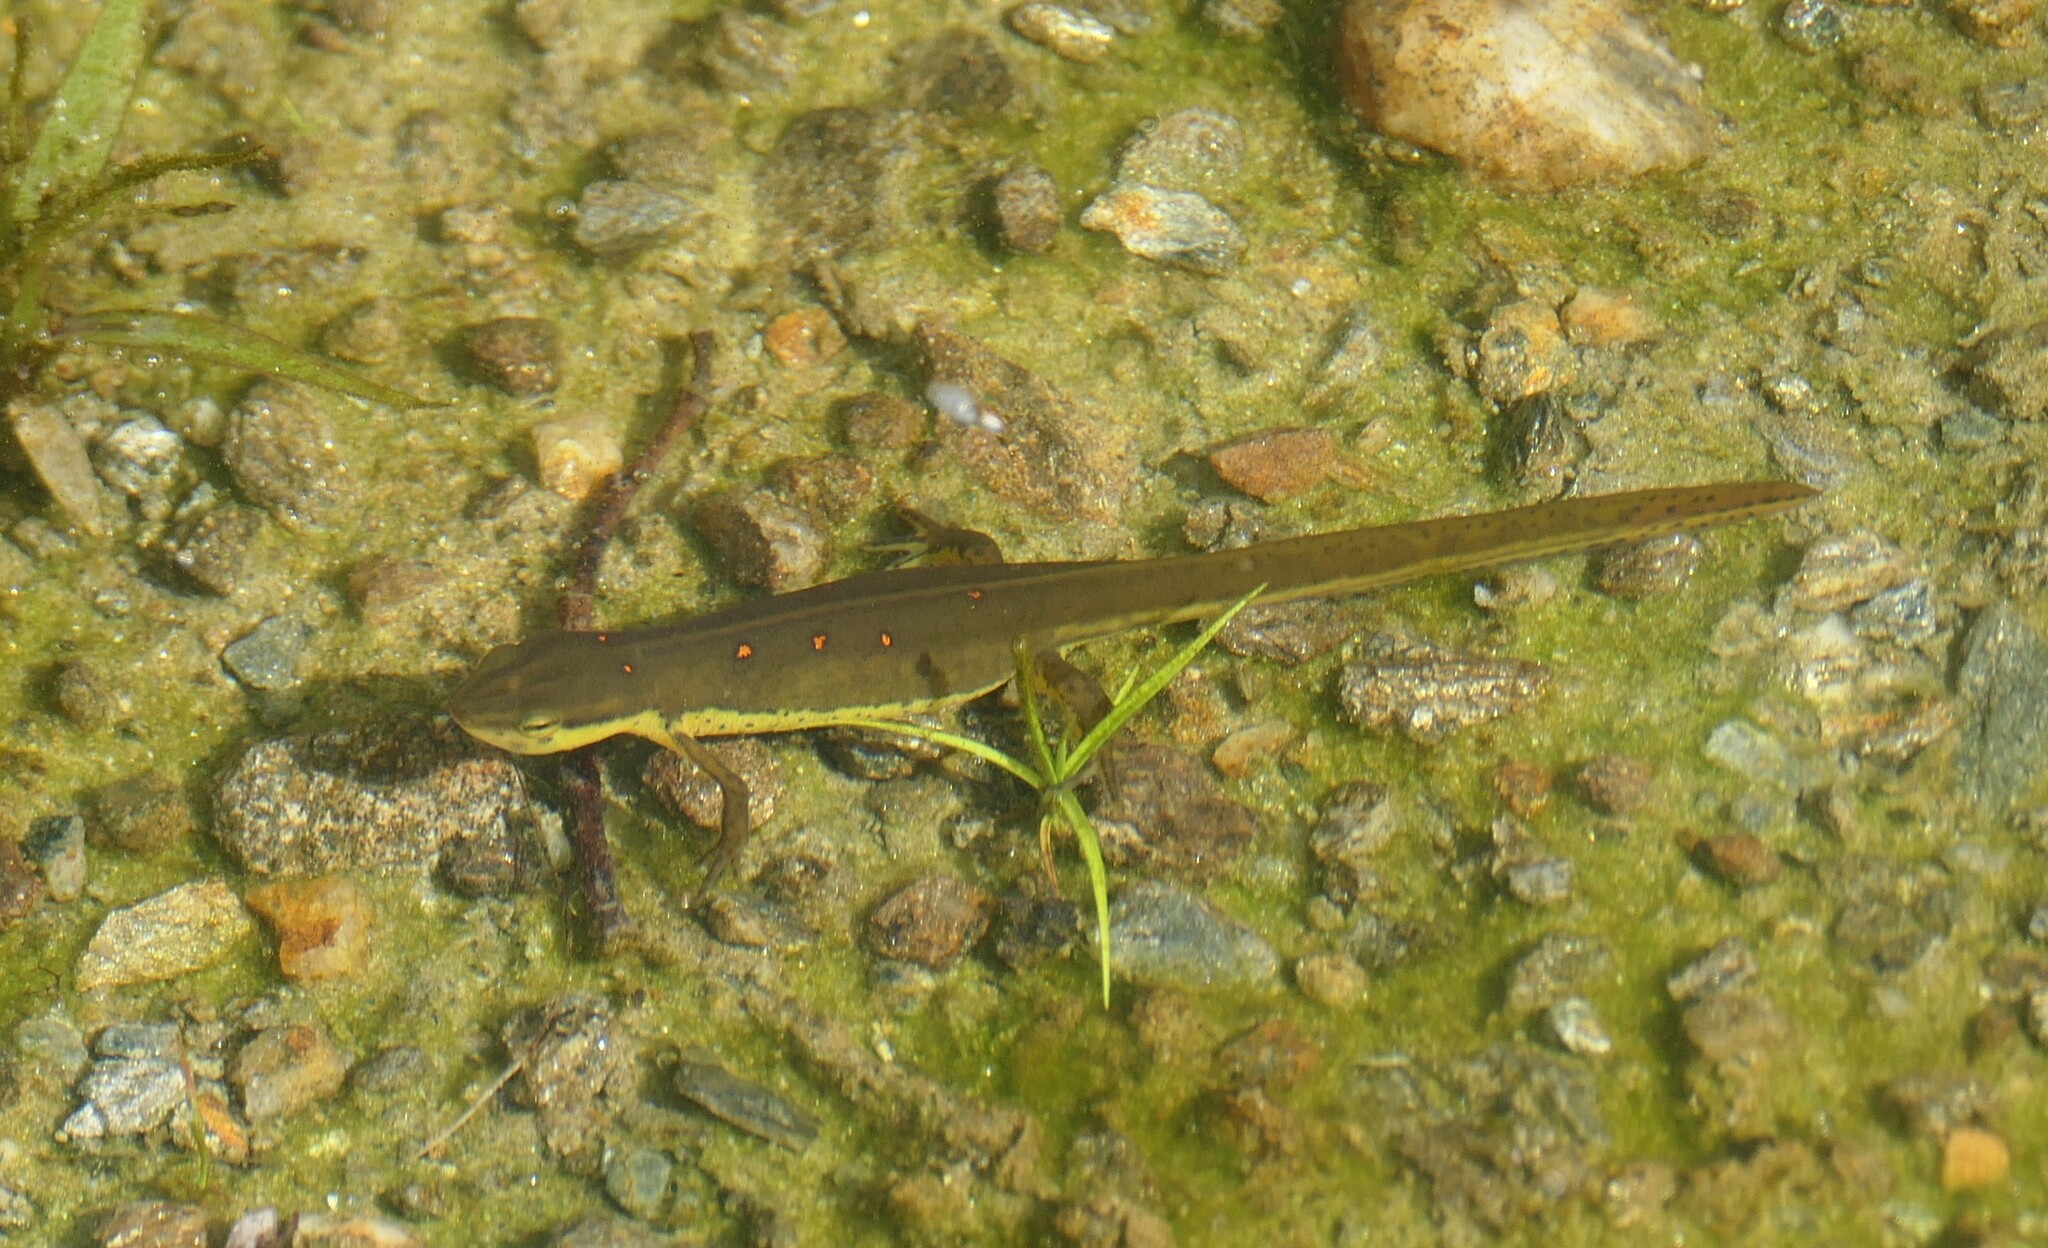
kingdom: Animalia
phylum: Chordata
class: Amphibia
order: Caudata
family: Salamandridae
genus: Notophthalmus
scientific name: Notophthalmus viridescens
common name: Eastern newt
